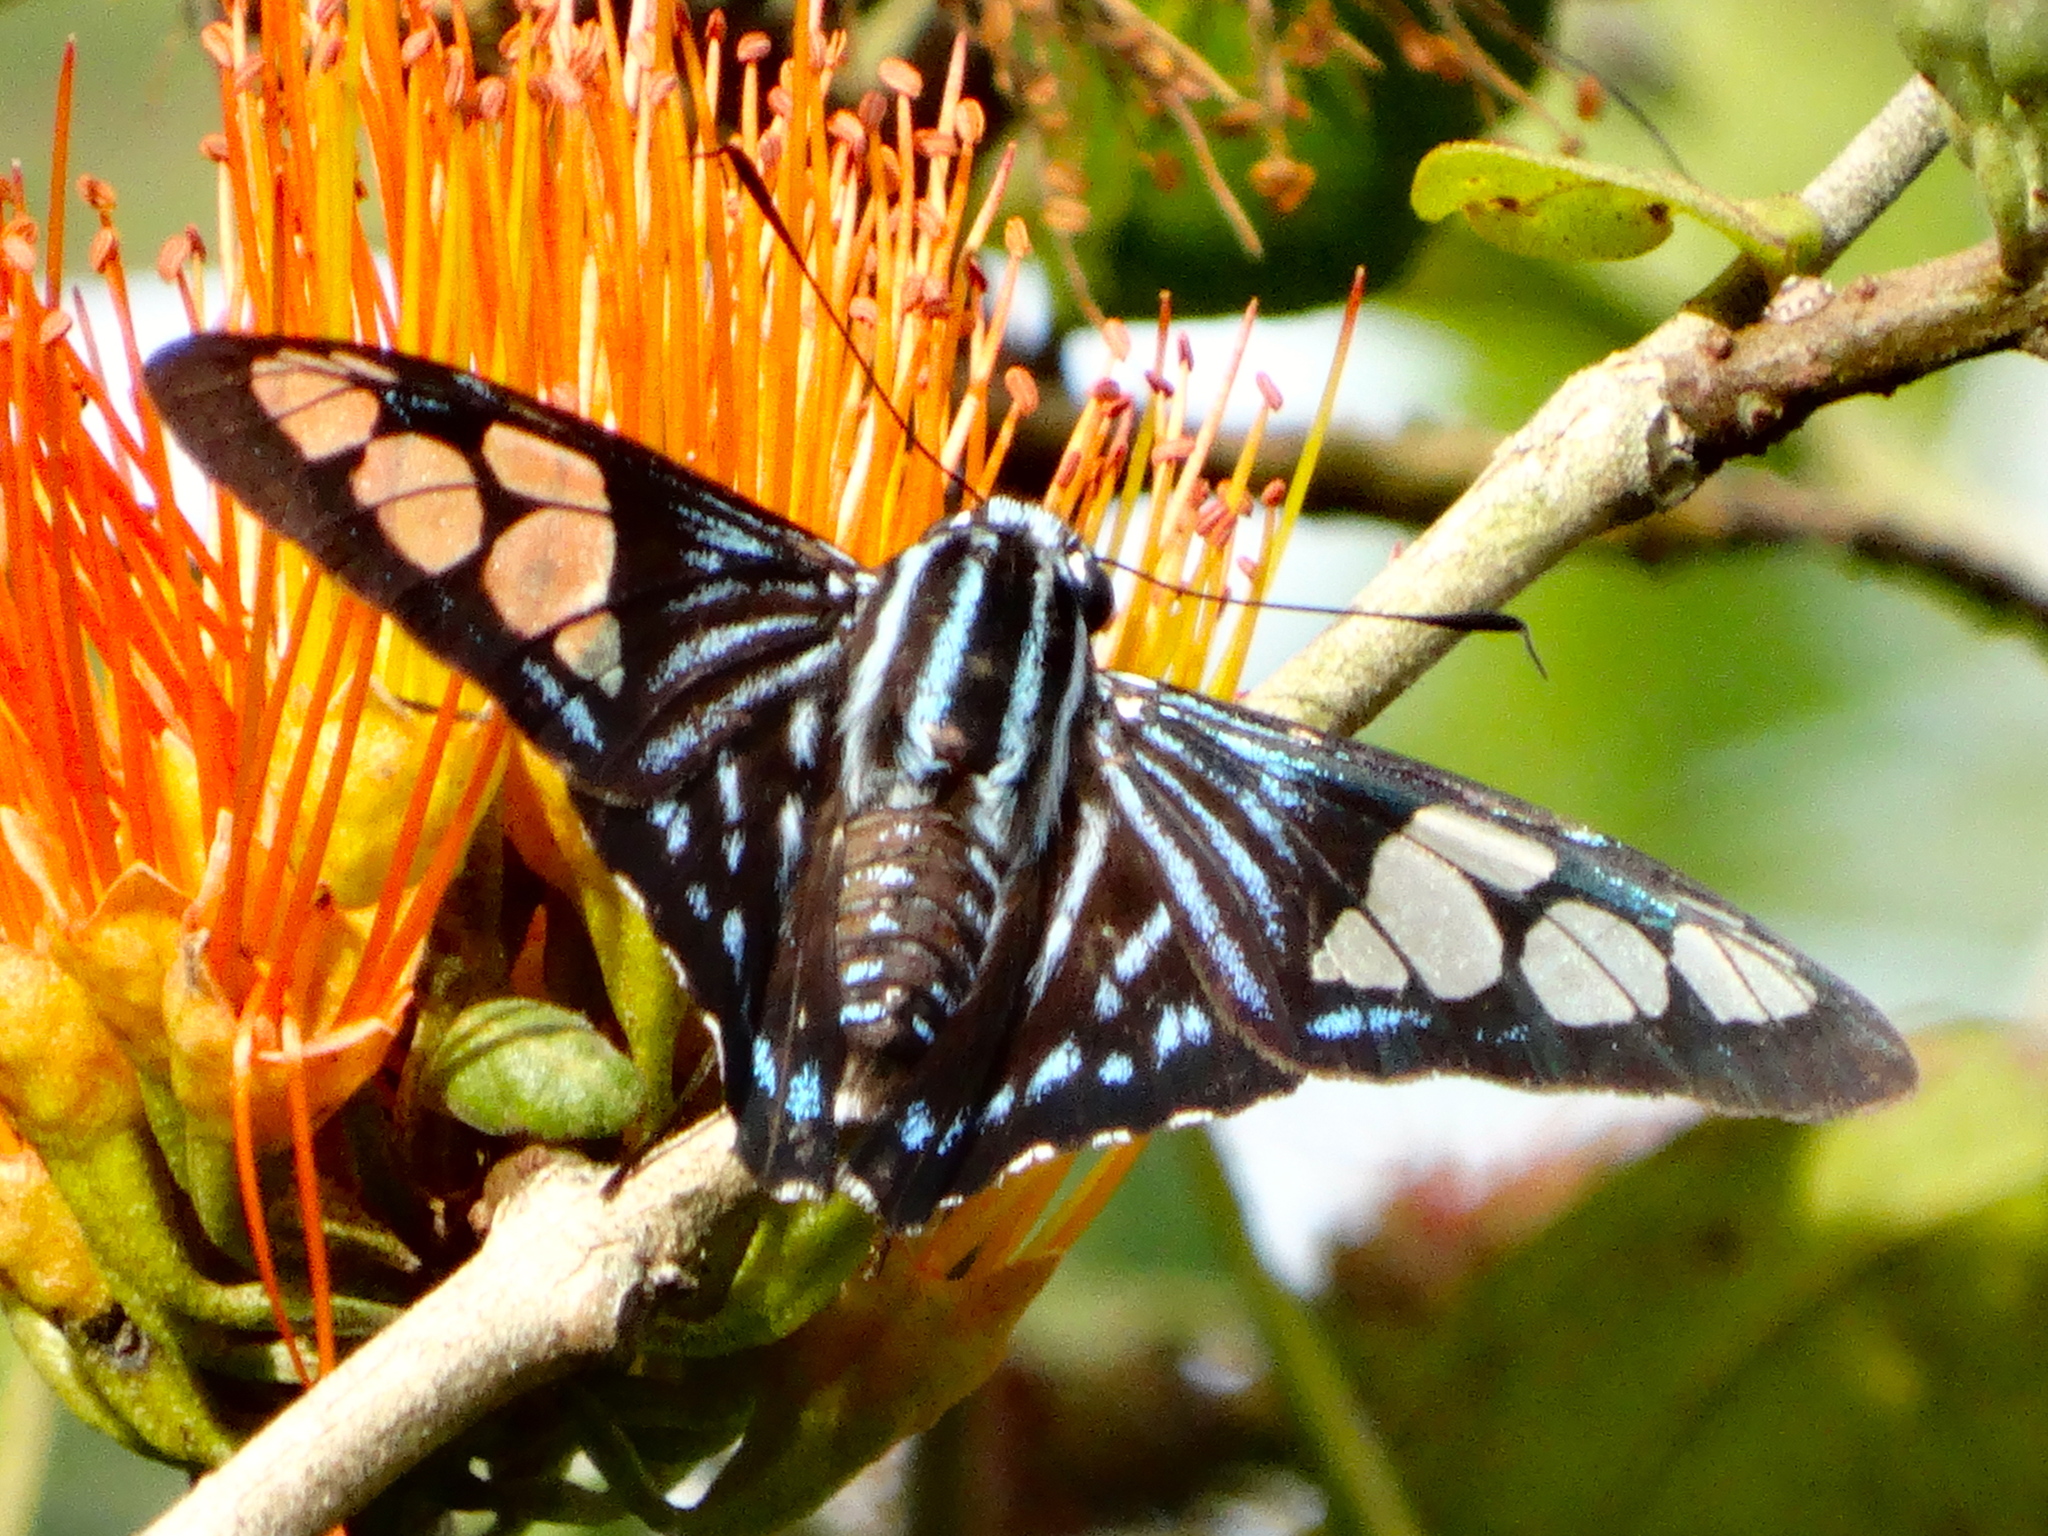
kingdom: Animalia
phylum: Arthropoda
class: Insecta
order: Lepidoptera
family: Hesperiidae
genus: Phocides
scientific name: Phocides pigmalion
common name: Mangrove skipper
